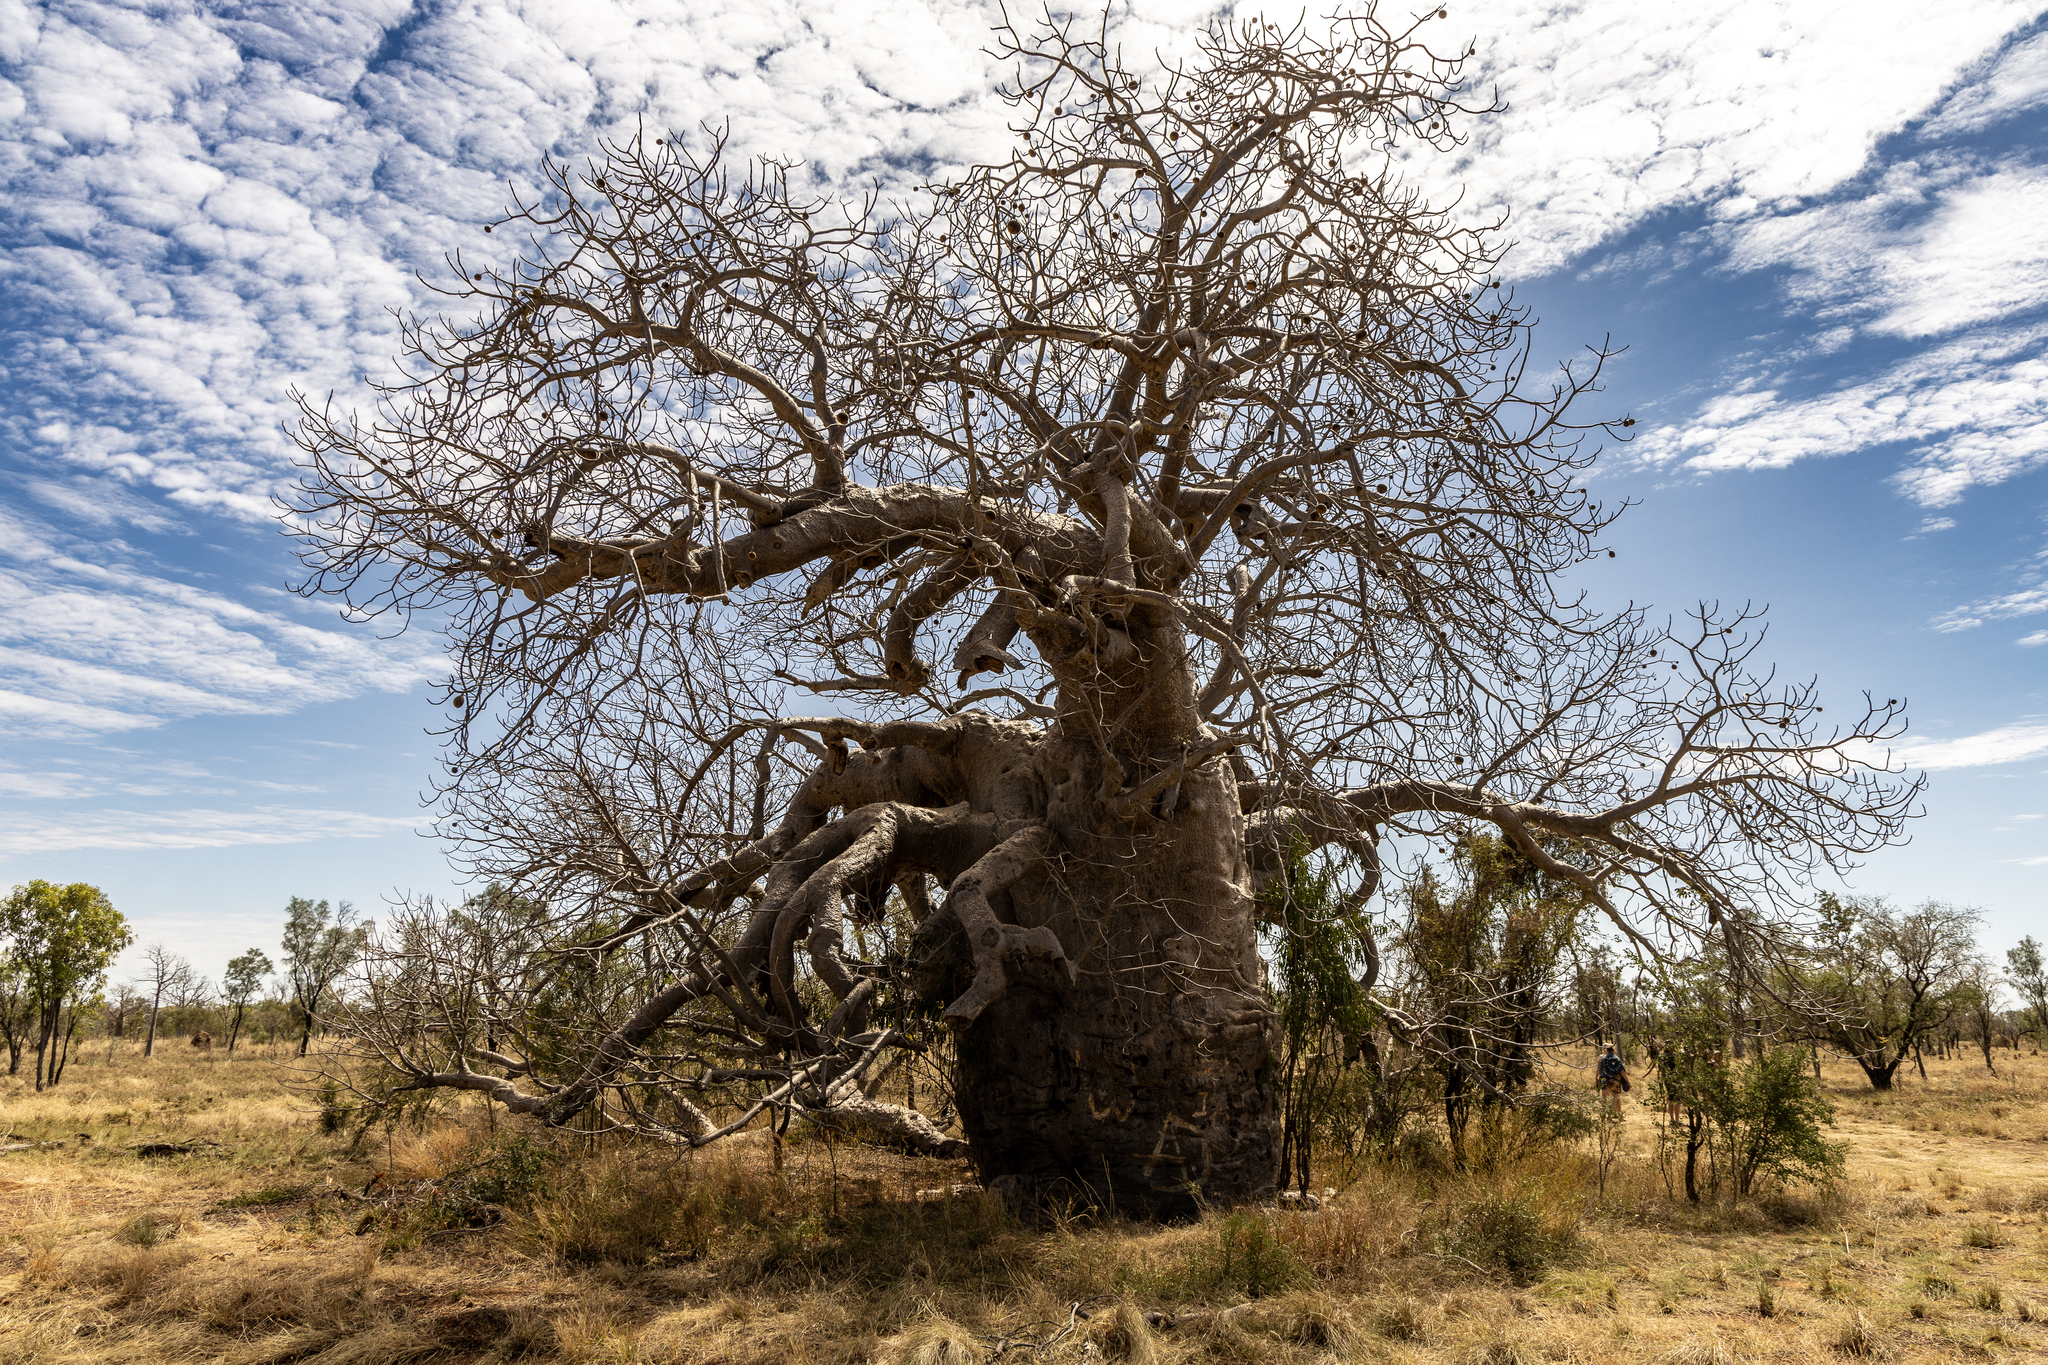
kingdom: Plantae
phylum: Tracheophyta
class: Magnoliopsida
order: Malvales
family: Malvaceae
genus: Adansonia
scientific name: Adansonia gregorii
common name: Australian baobab
